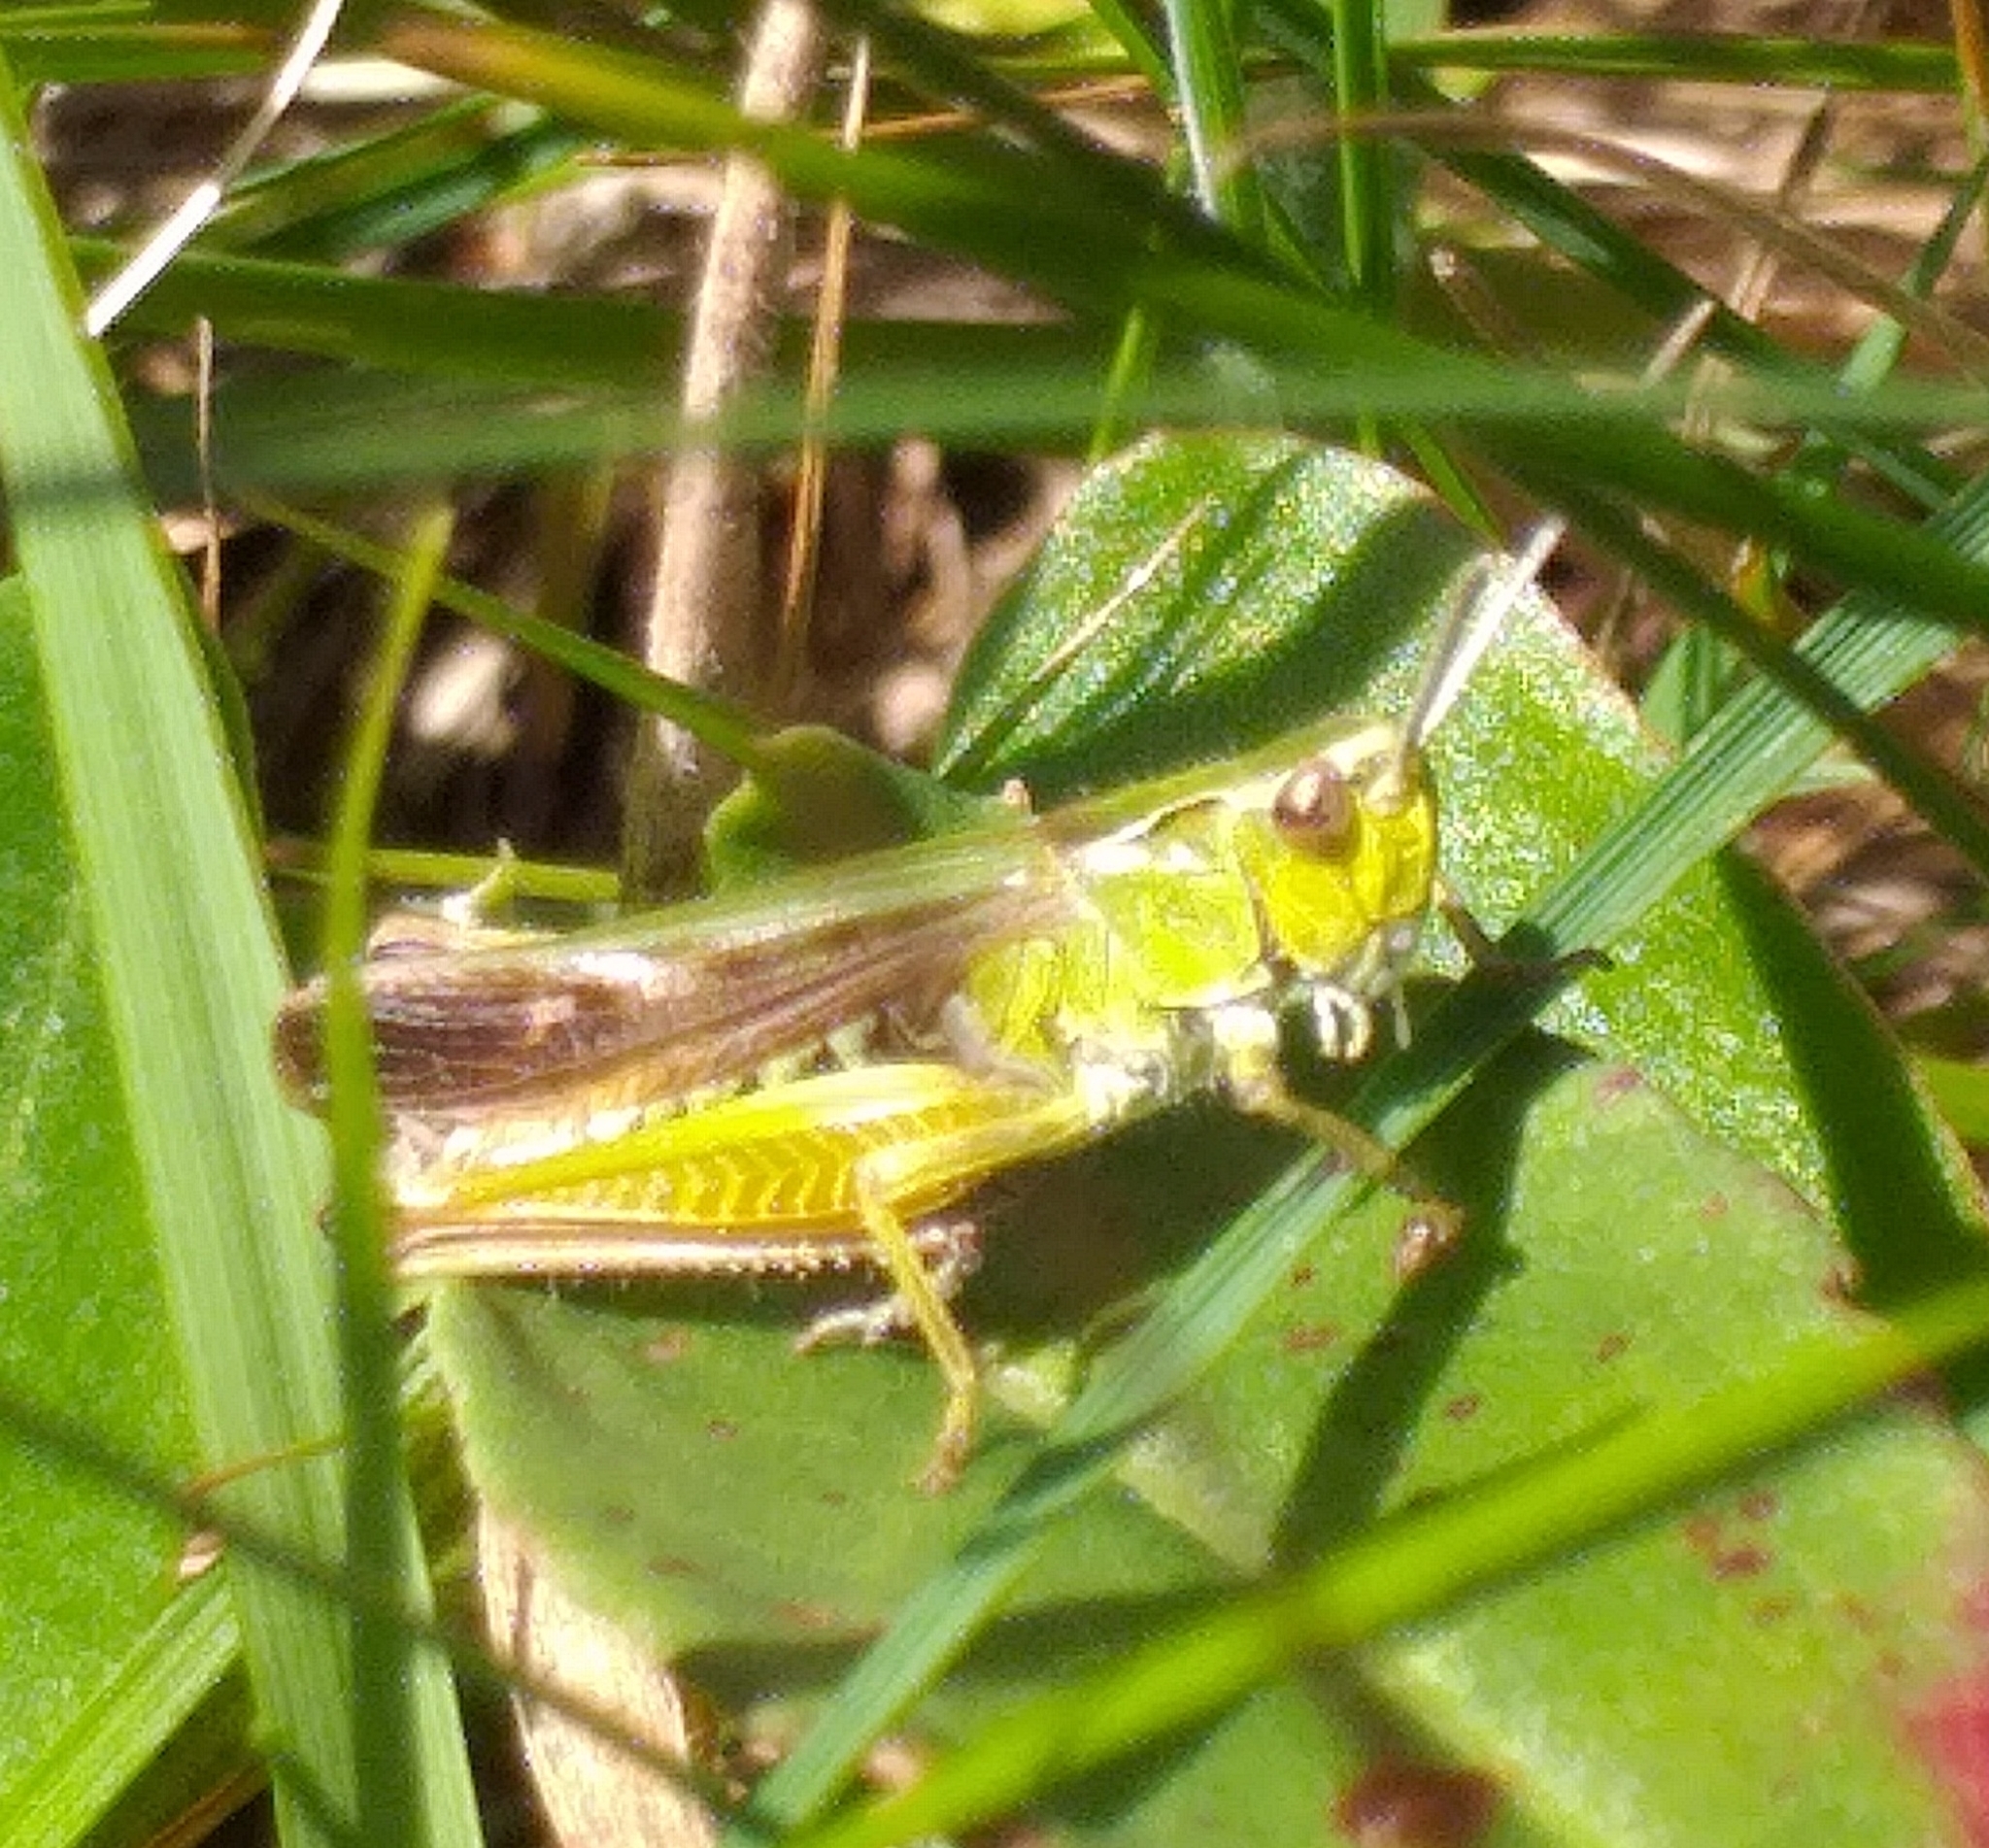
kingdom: Animalia
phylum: Arthropoda
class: Insecta
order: Orthoptera
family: Acrididae
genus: Omocestus
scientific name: Omocestus viridulus
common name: Common green grasshopper
